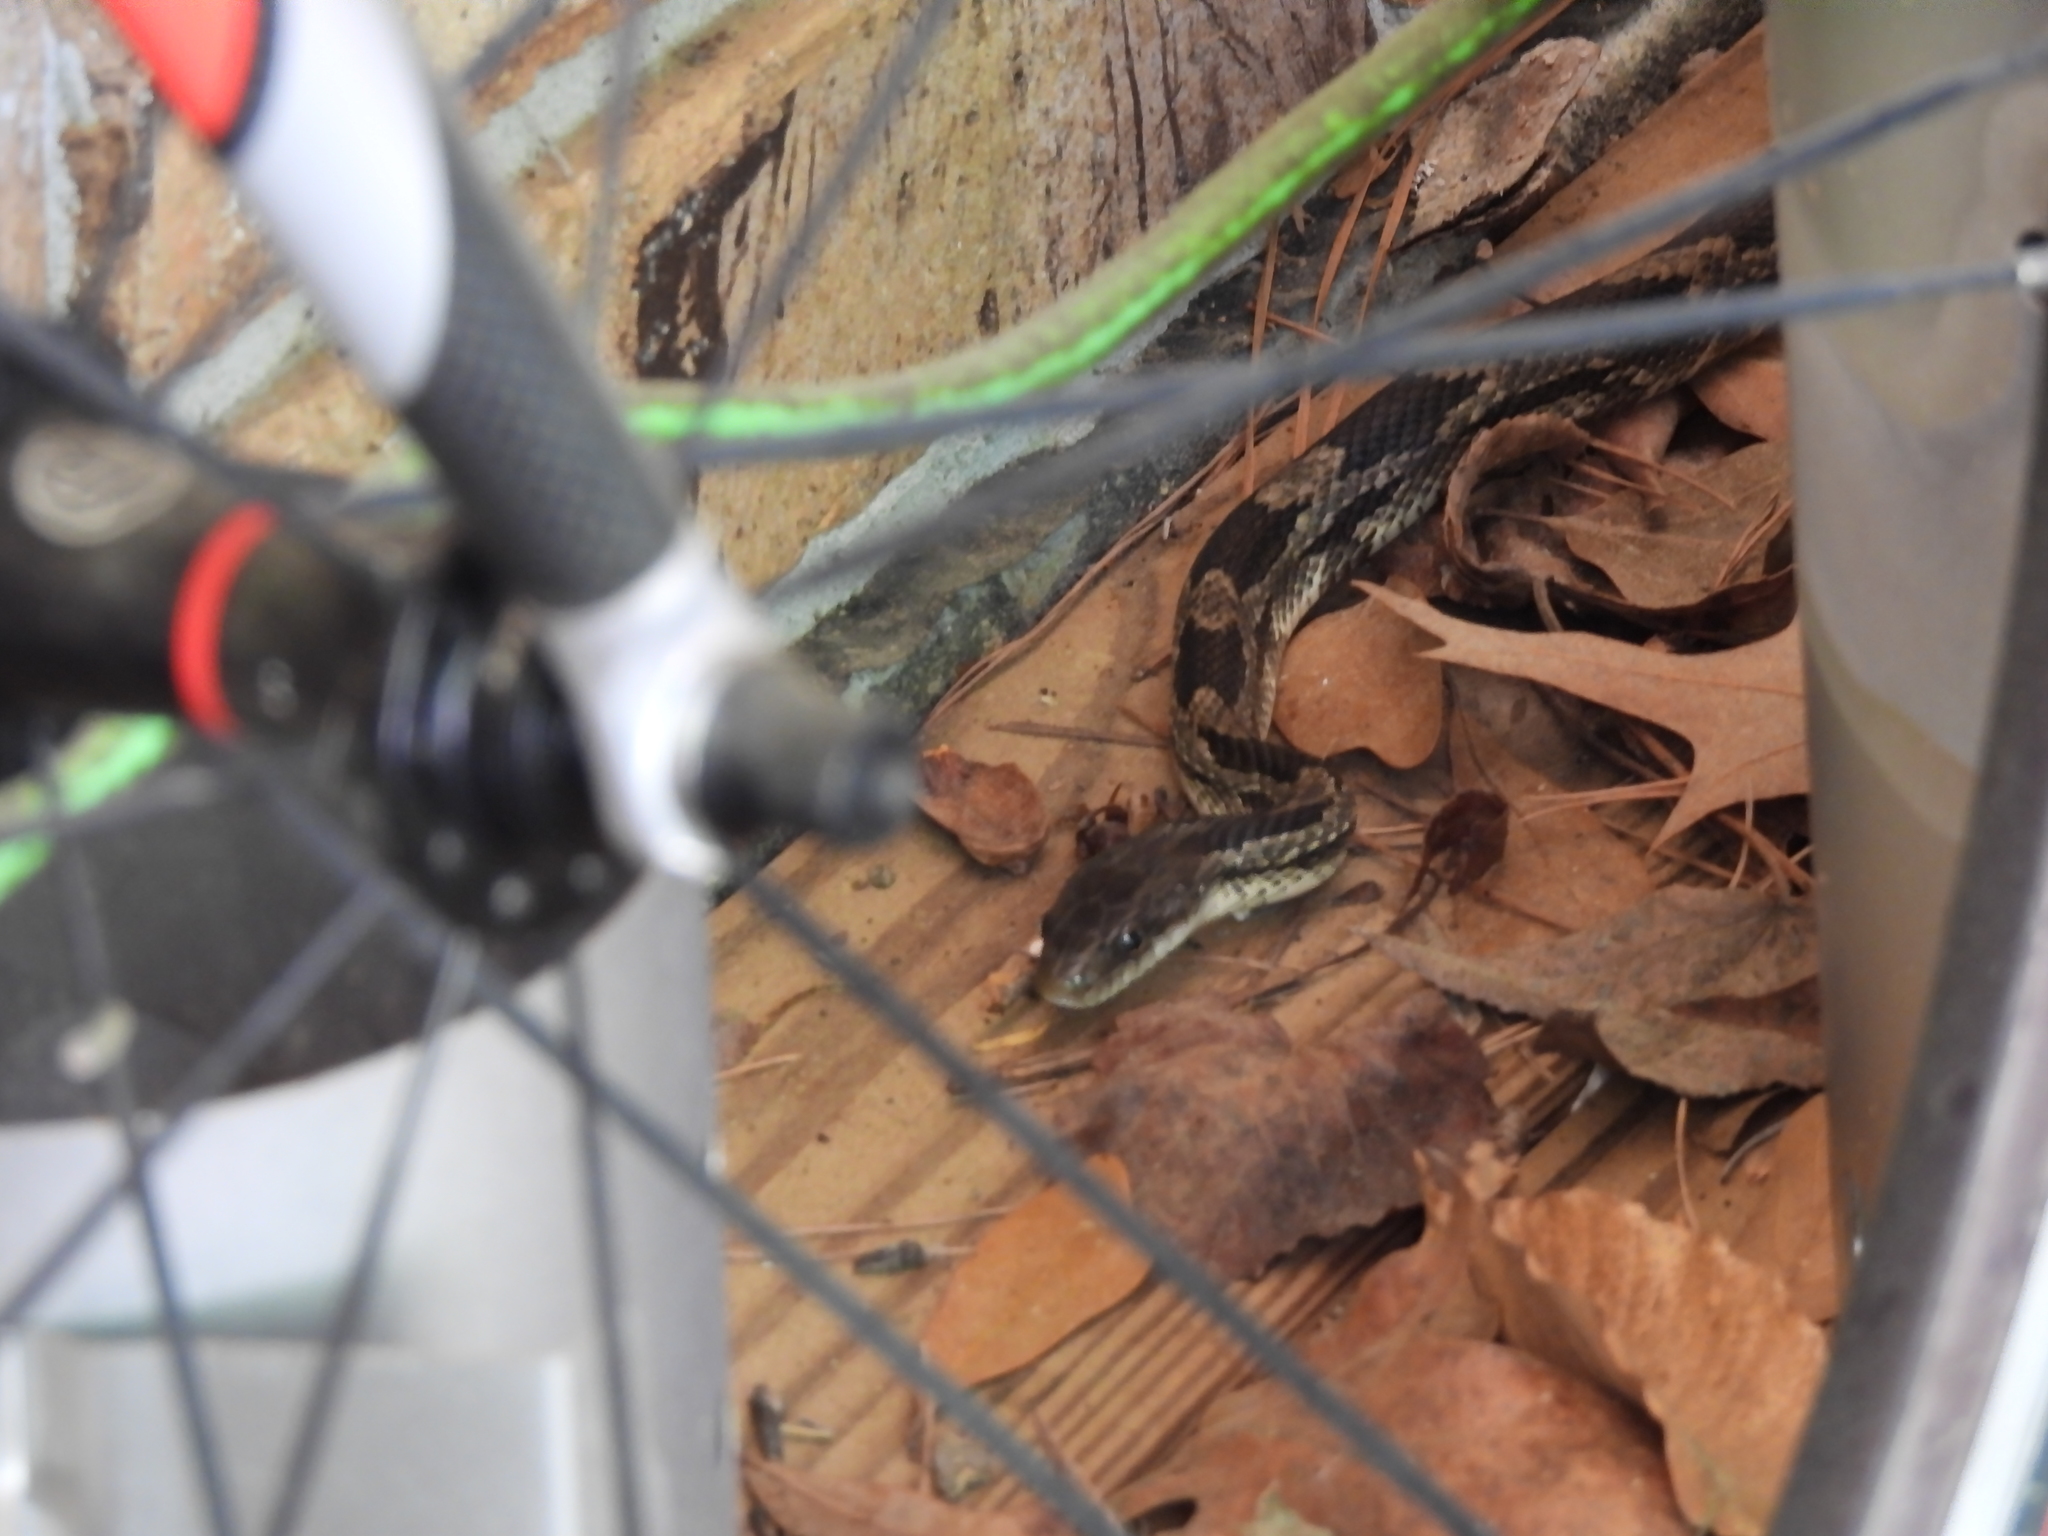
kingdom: Animalia
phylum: Chordata
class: Squamata
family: Colubridae
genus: Pantherophis
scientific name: Pantherophis spiloides
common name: Gray rat snake
